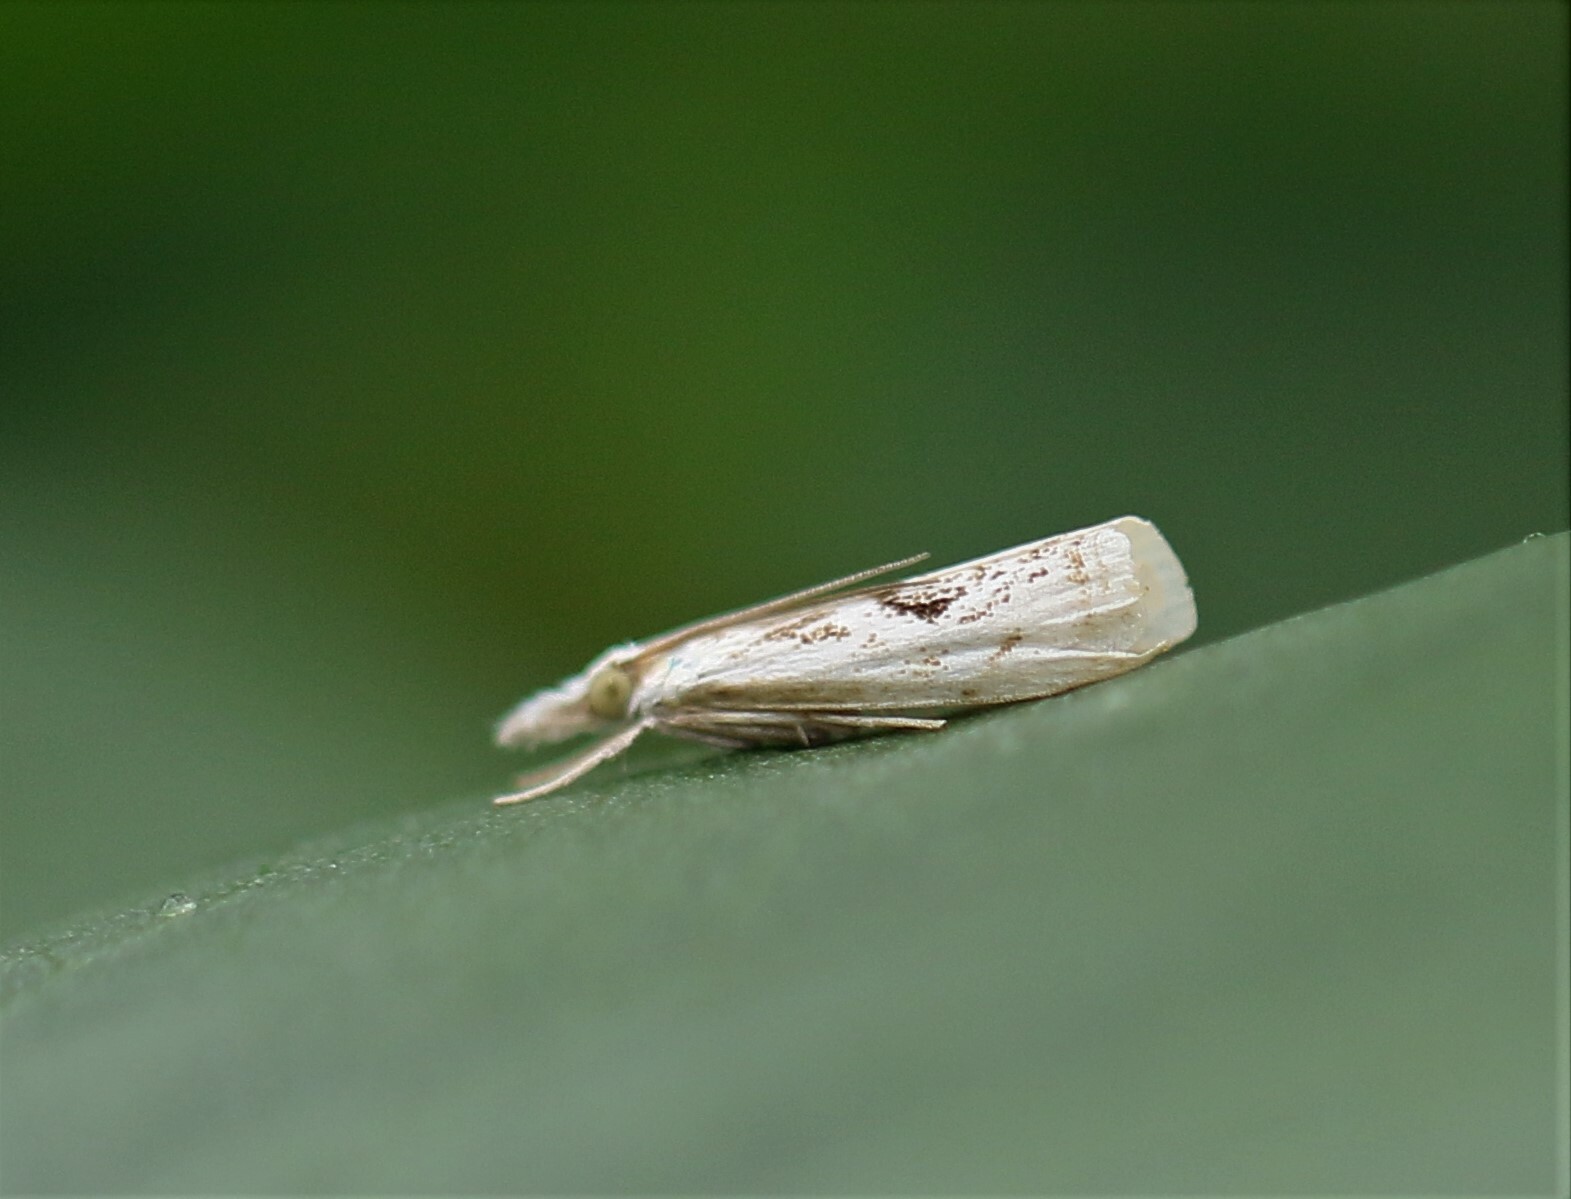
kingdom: Animalia
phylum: Arthropoda
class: Insecta
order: Lepidoptera
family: Crambidae
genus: Microcrambus
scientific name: Microcrambus elegans
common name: Elegant grass-veneer
